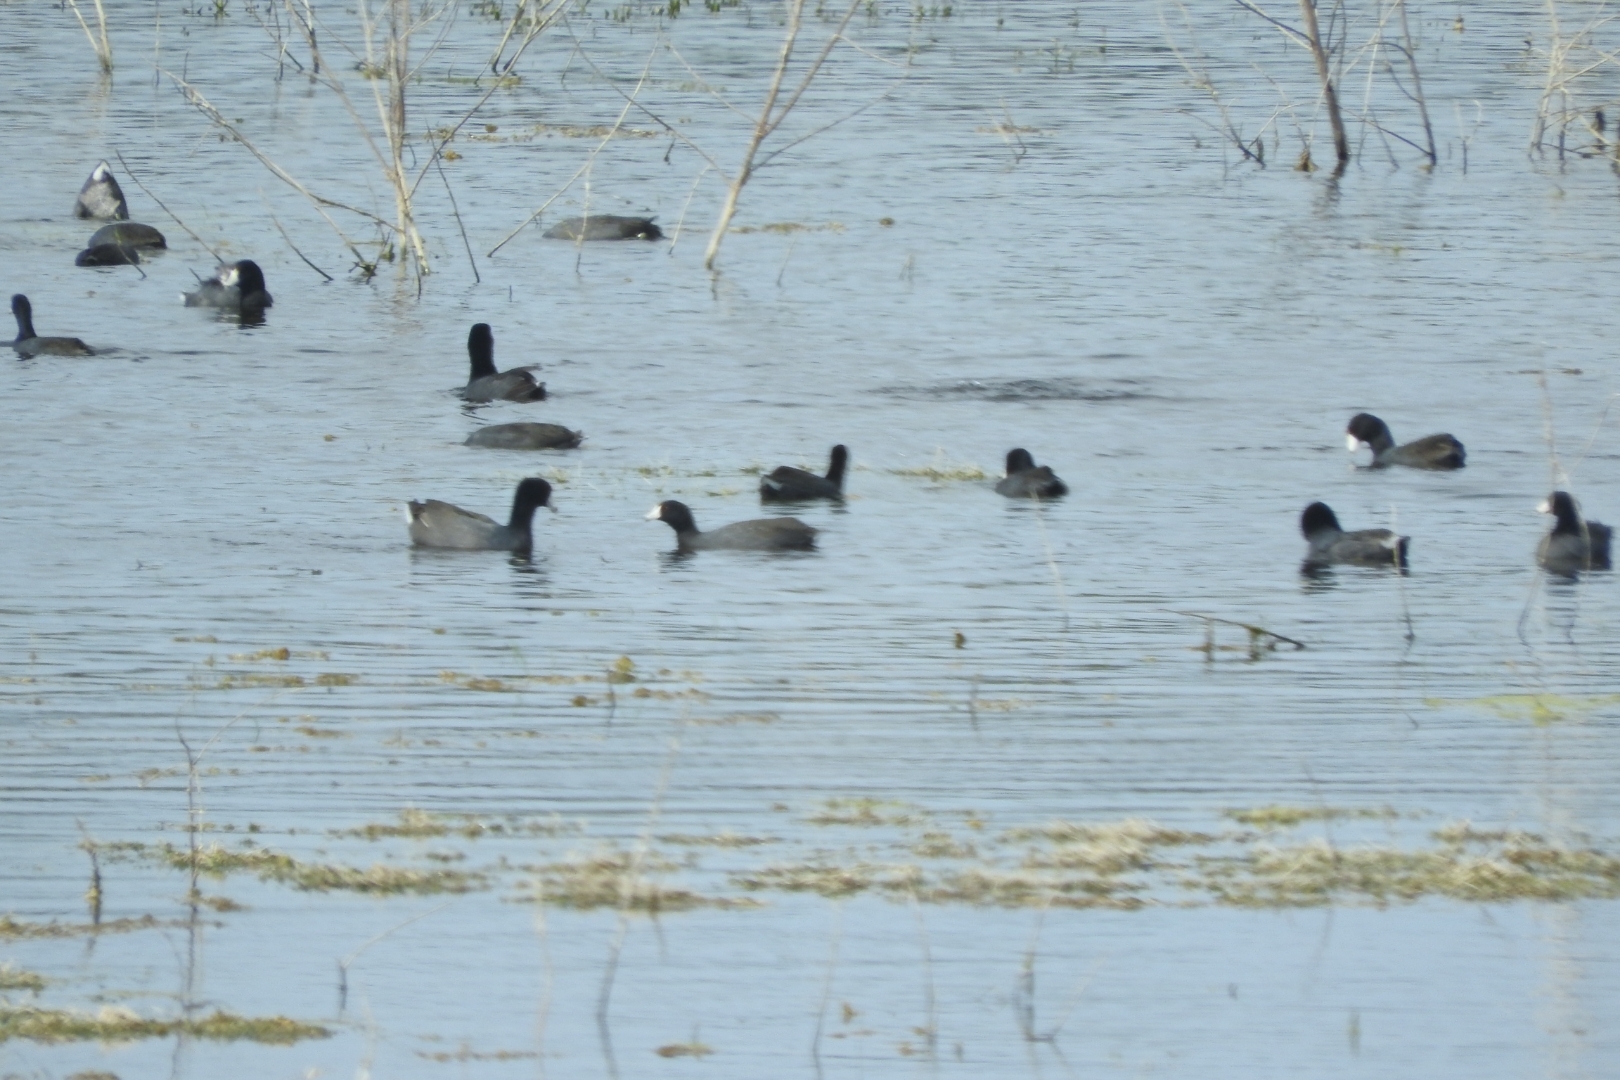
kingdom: Animalia
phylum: Chordata
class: Aves
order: Gruiformes
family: Rallidae
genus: Fulica
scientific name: Fulica americana
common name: American coot
